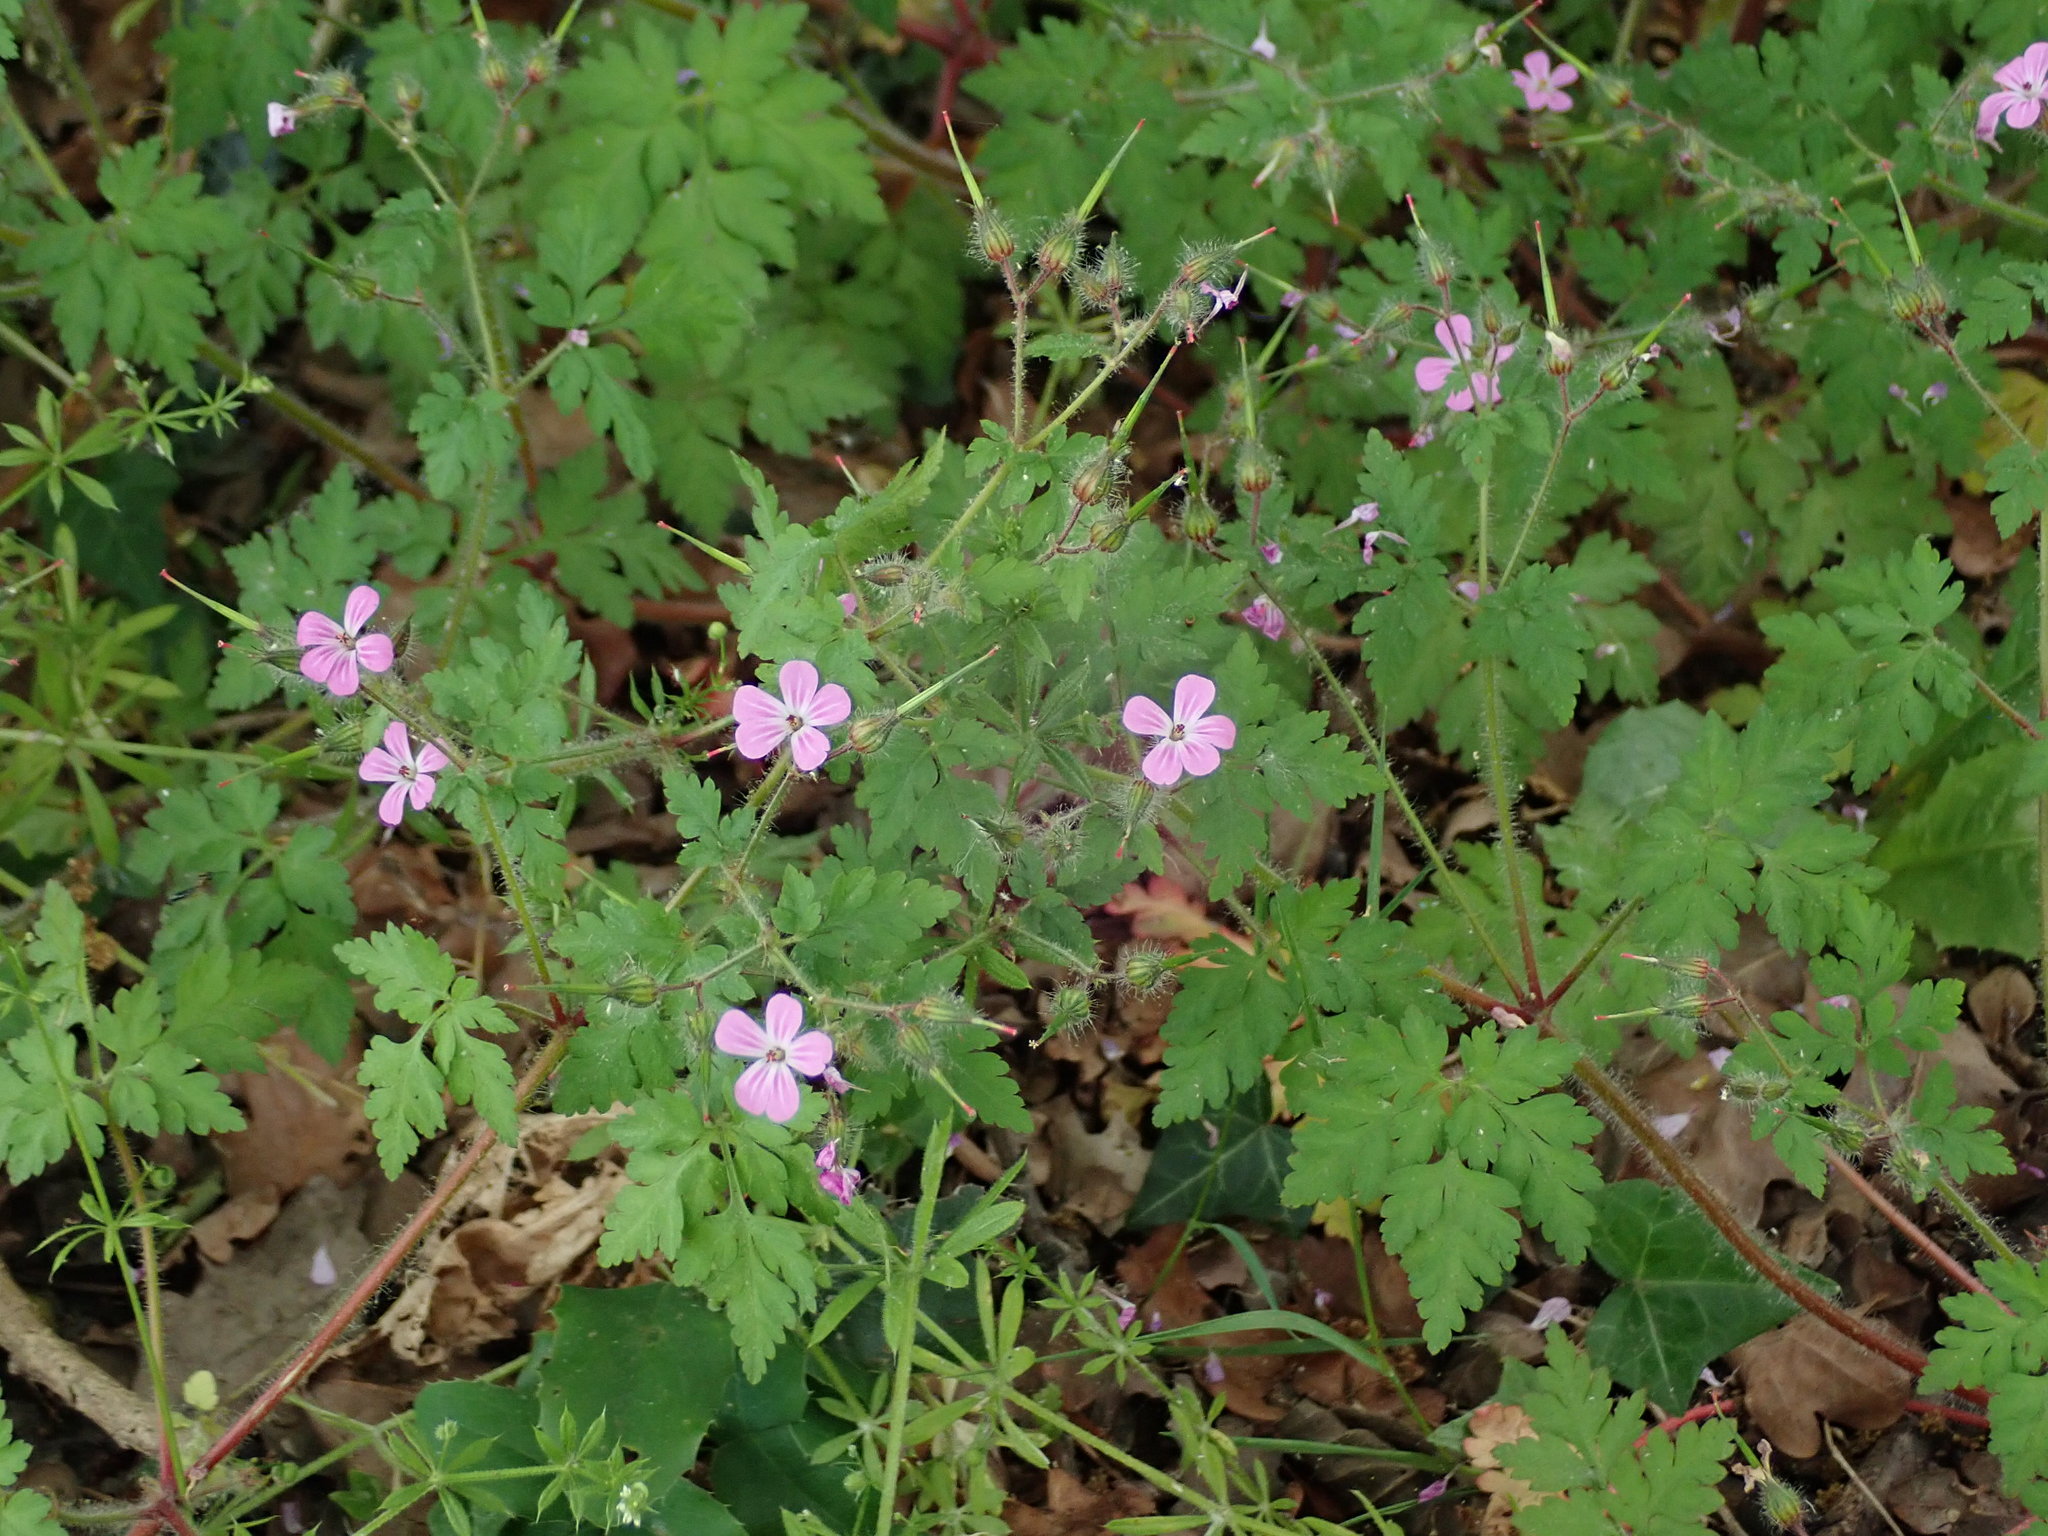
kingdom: Plantae
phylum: Tracheophyta
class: Magnoliopsida
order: Geraniales
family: Geraniaceae
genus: Geranium
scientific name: Geranium robertianum
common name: Herb-robert
